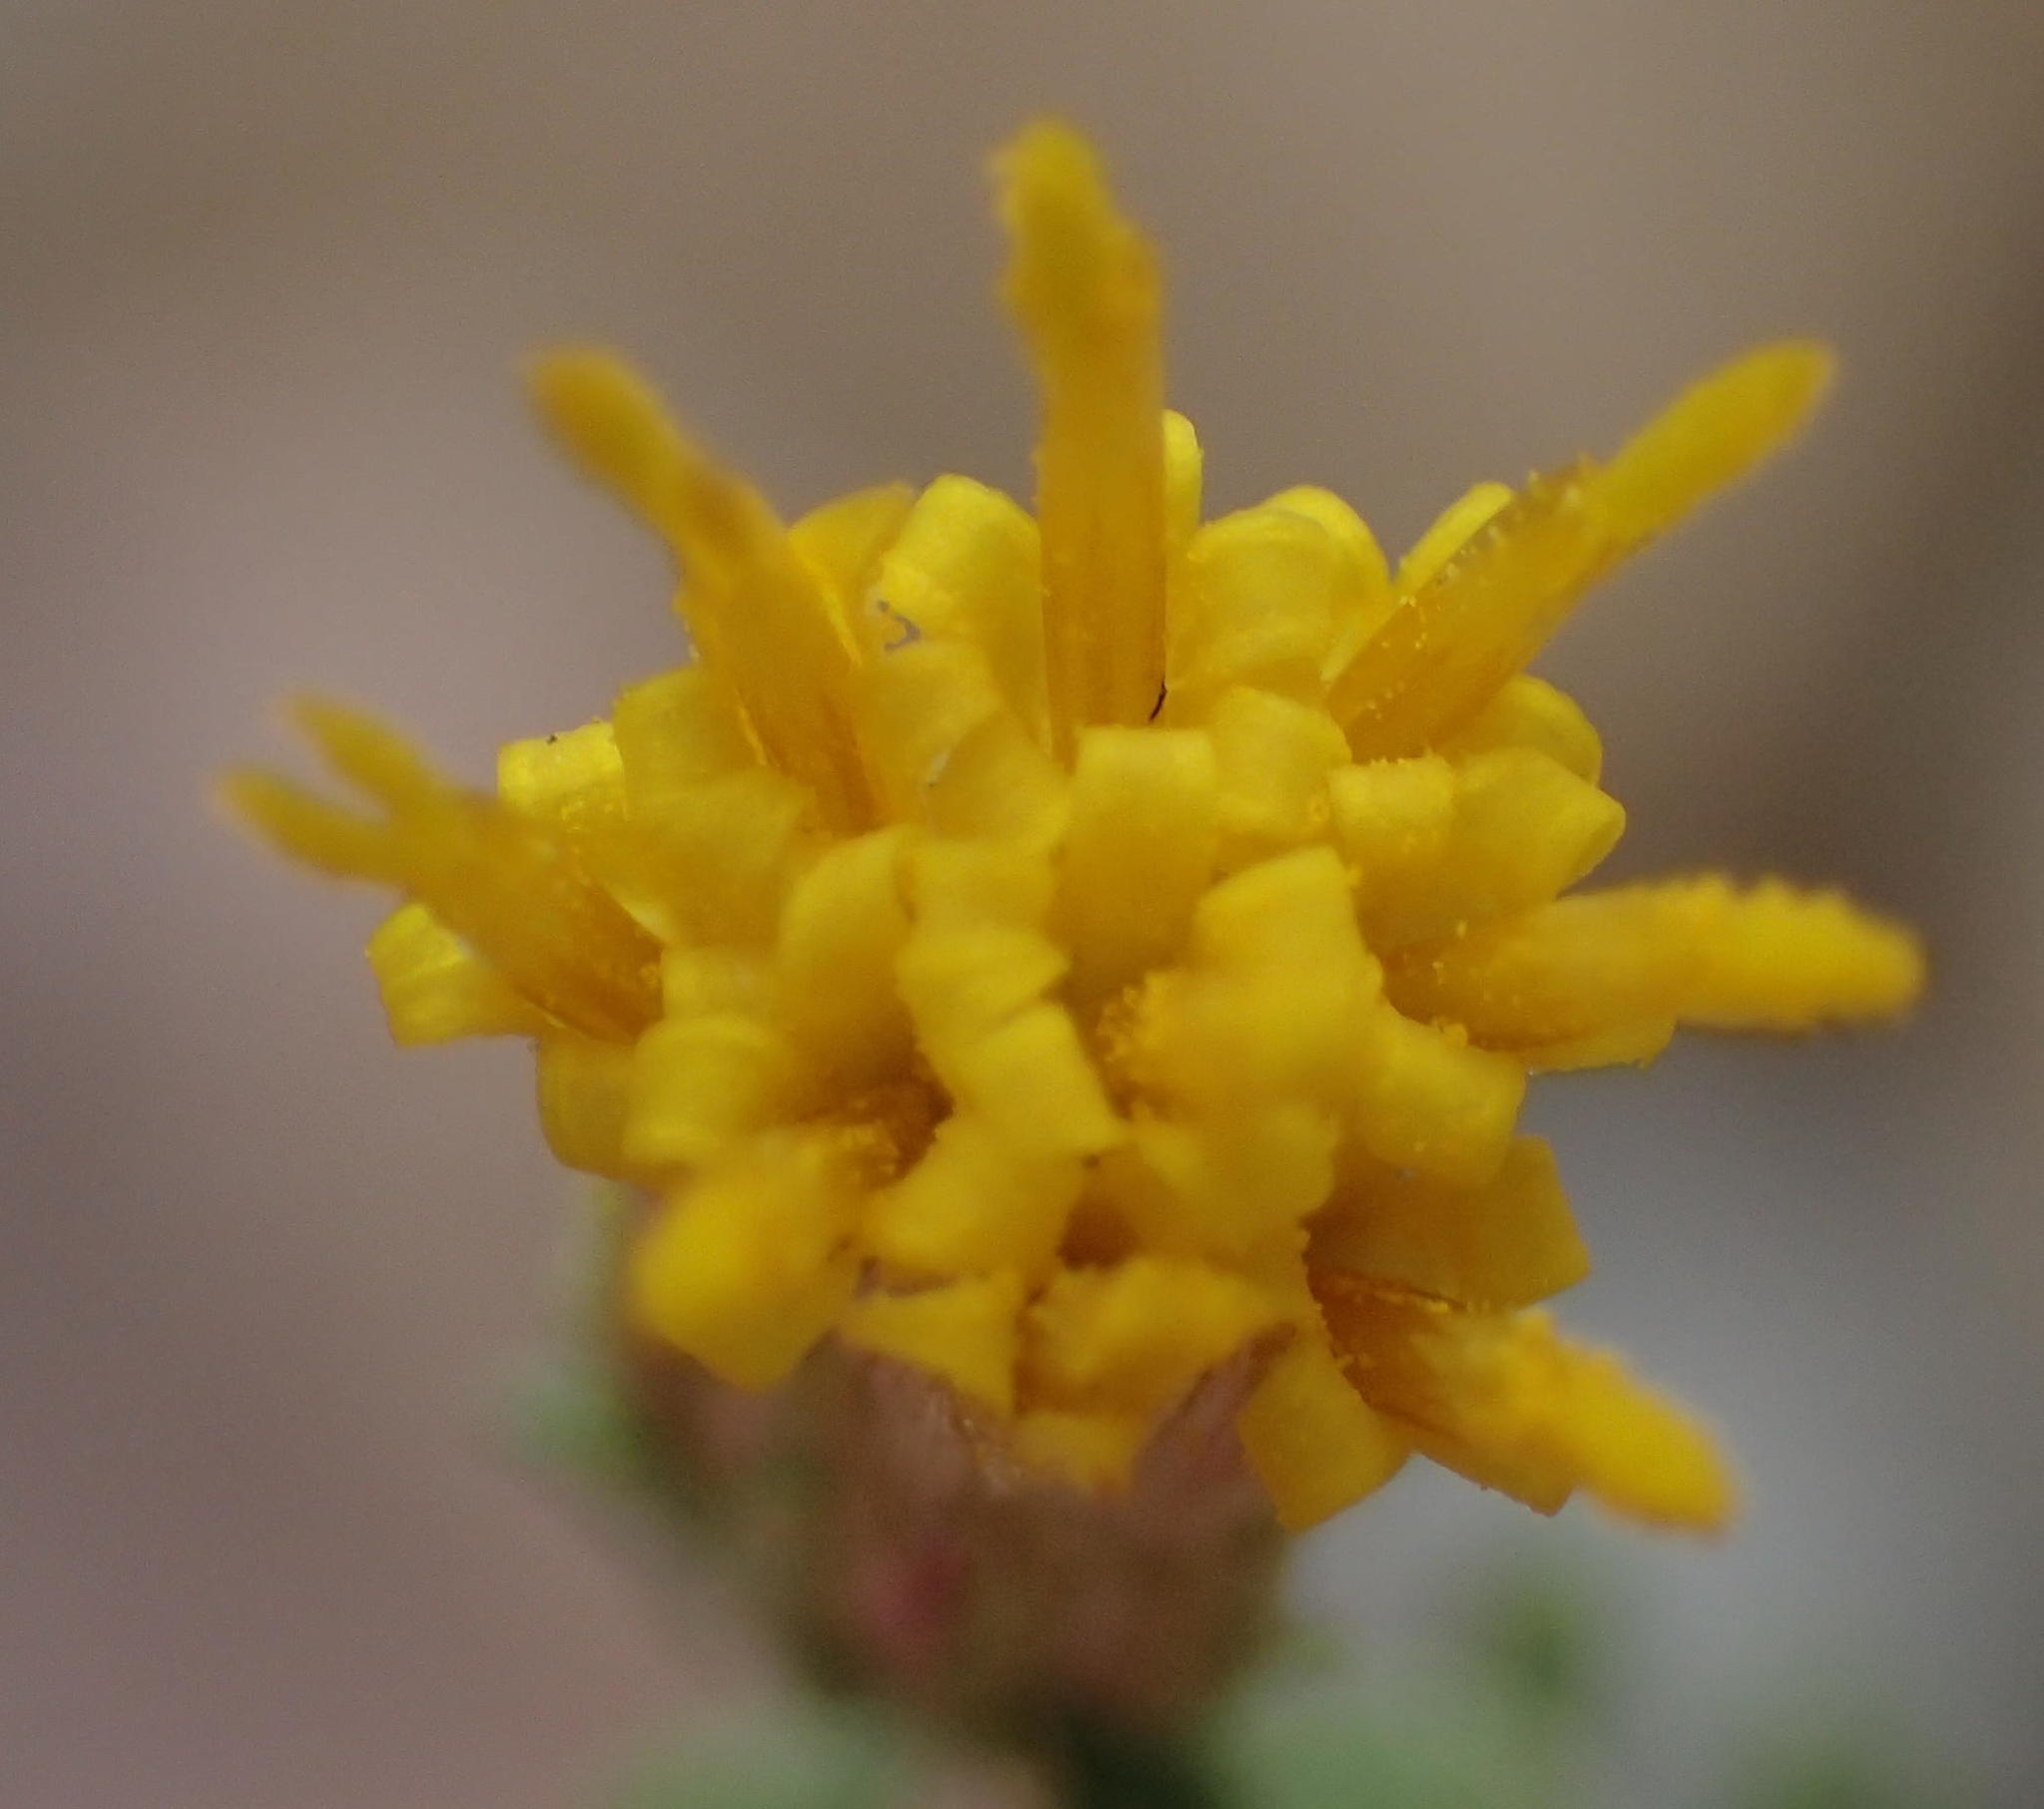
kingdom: Plantae
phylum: Tracheophyta
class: Magnoliopsida
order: Asterales
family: Asteraceae
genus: Pegolettia
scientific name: Pegolettia retrofracta
